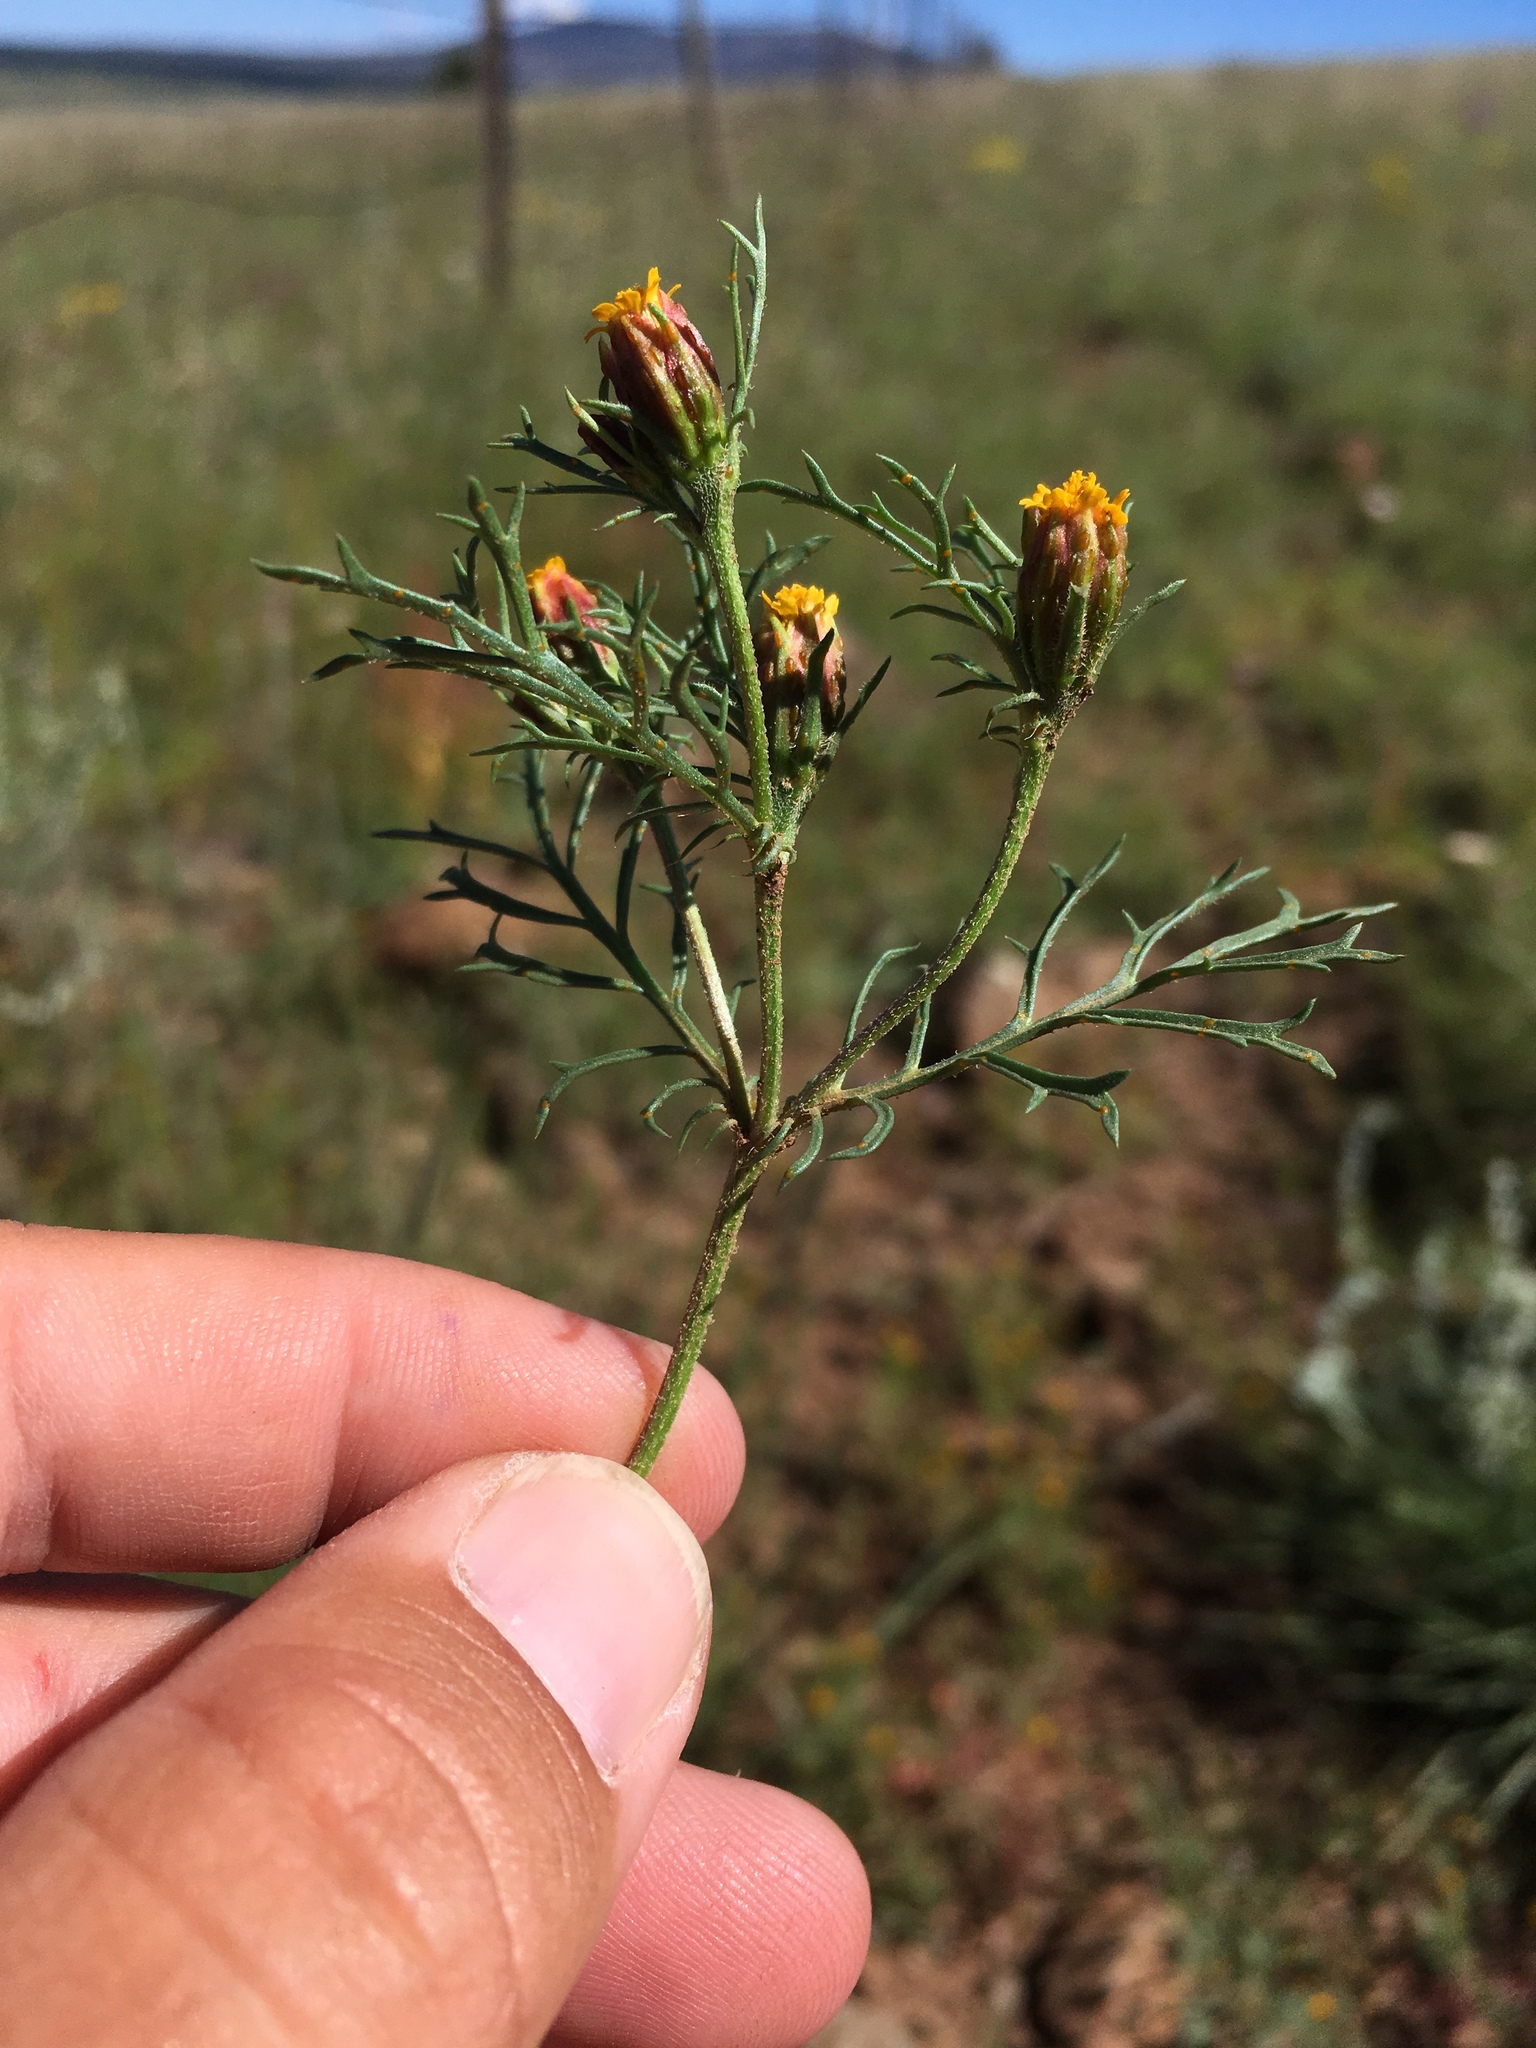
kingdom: Plantae
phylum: Tracheophyta
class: Magnoliopsida
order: Asterales
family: Asteraceae
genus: Dyssodia
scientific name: Dyssodia papposa
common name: Dogweed
